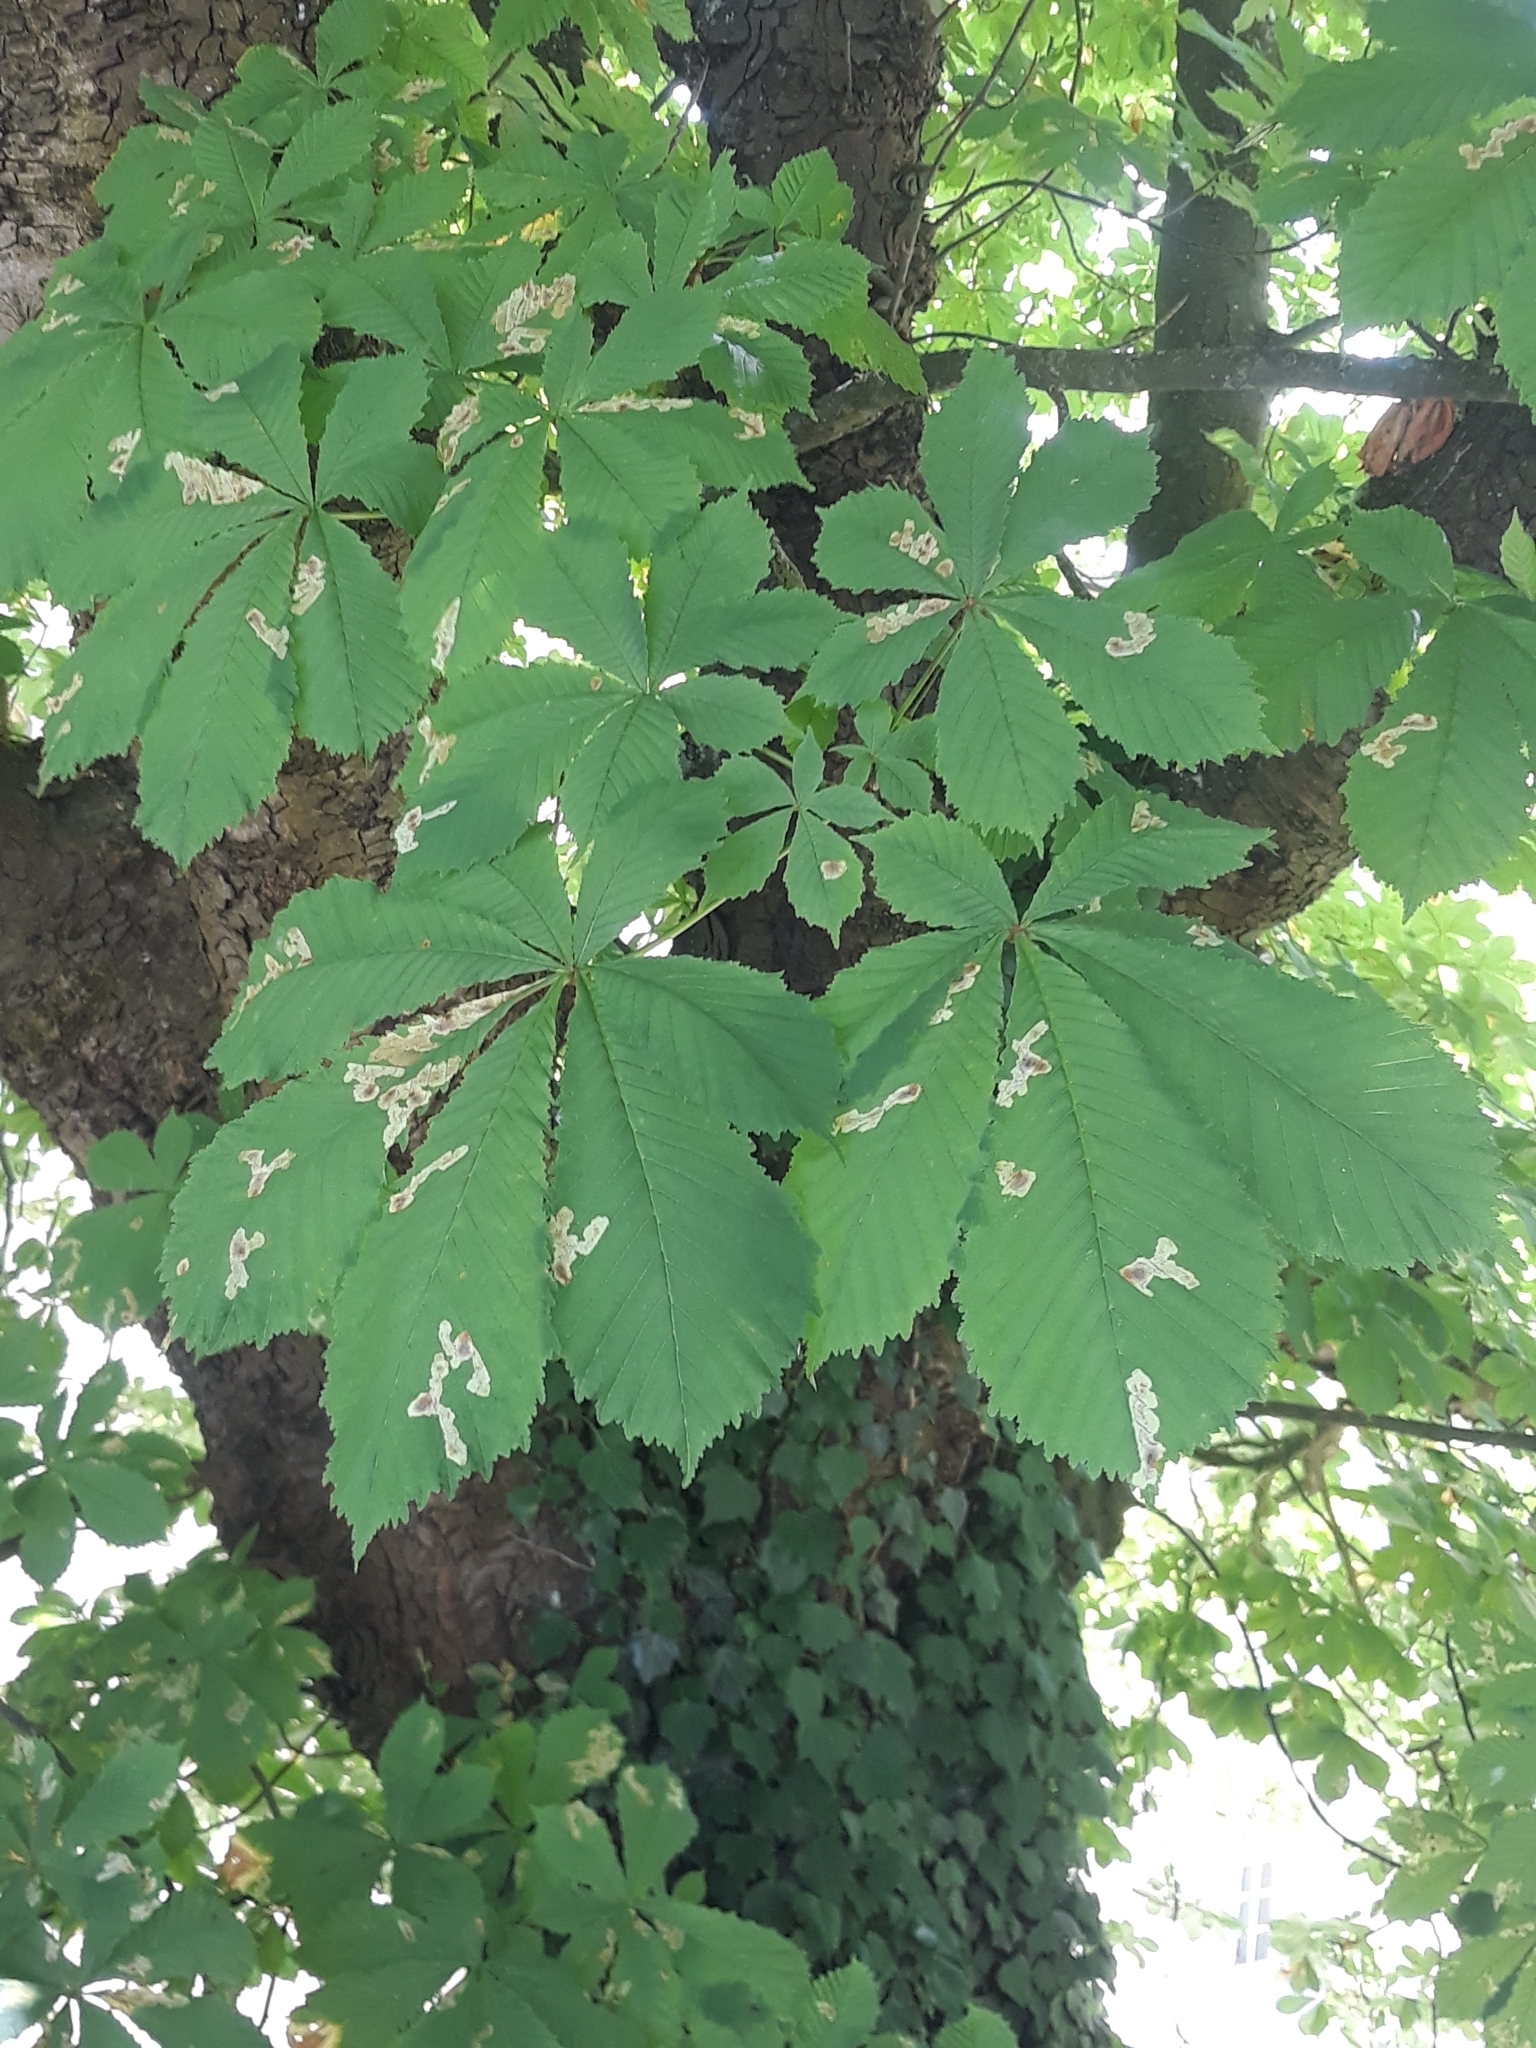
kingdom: Plantae
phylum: Tracheophyta
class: Magnoliopsida
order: Sapindales
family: Sapindaceae
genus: Aesculus
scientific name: Aesculus hippocastanum
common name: Horse-chestnut
